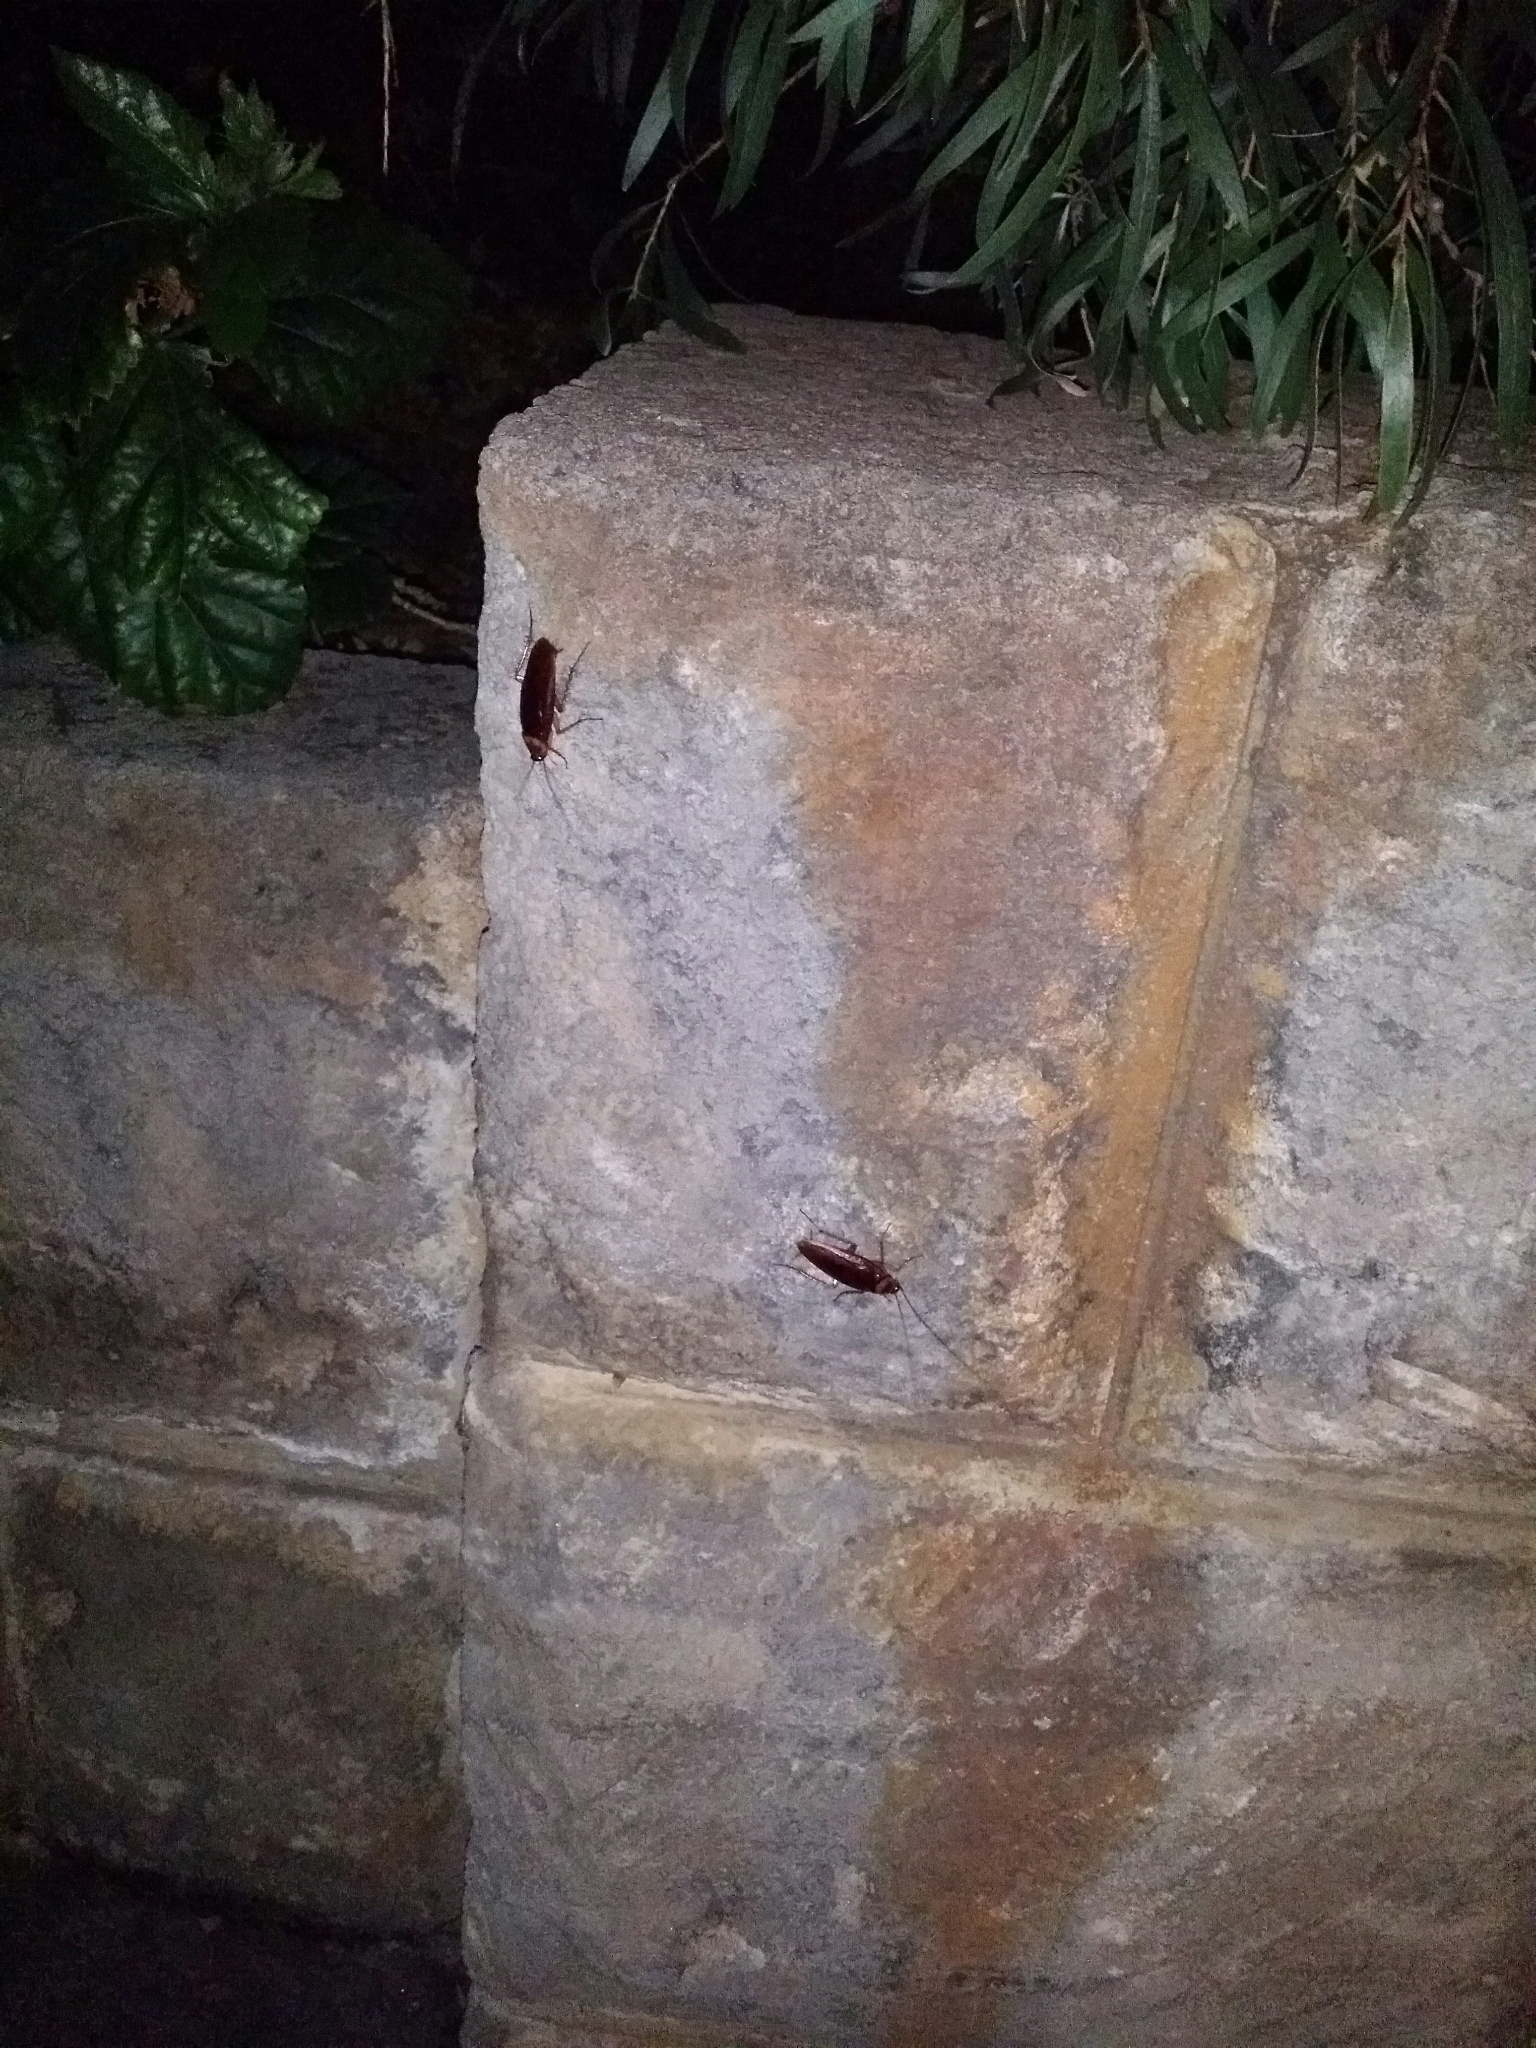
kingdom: Animalia
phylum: Arthropoda
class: Insecta
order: Blattodea
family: Blattidae
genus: Periplaneta
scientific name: Periplaneta americana
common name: American cockroach
